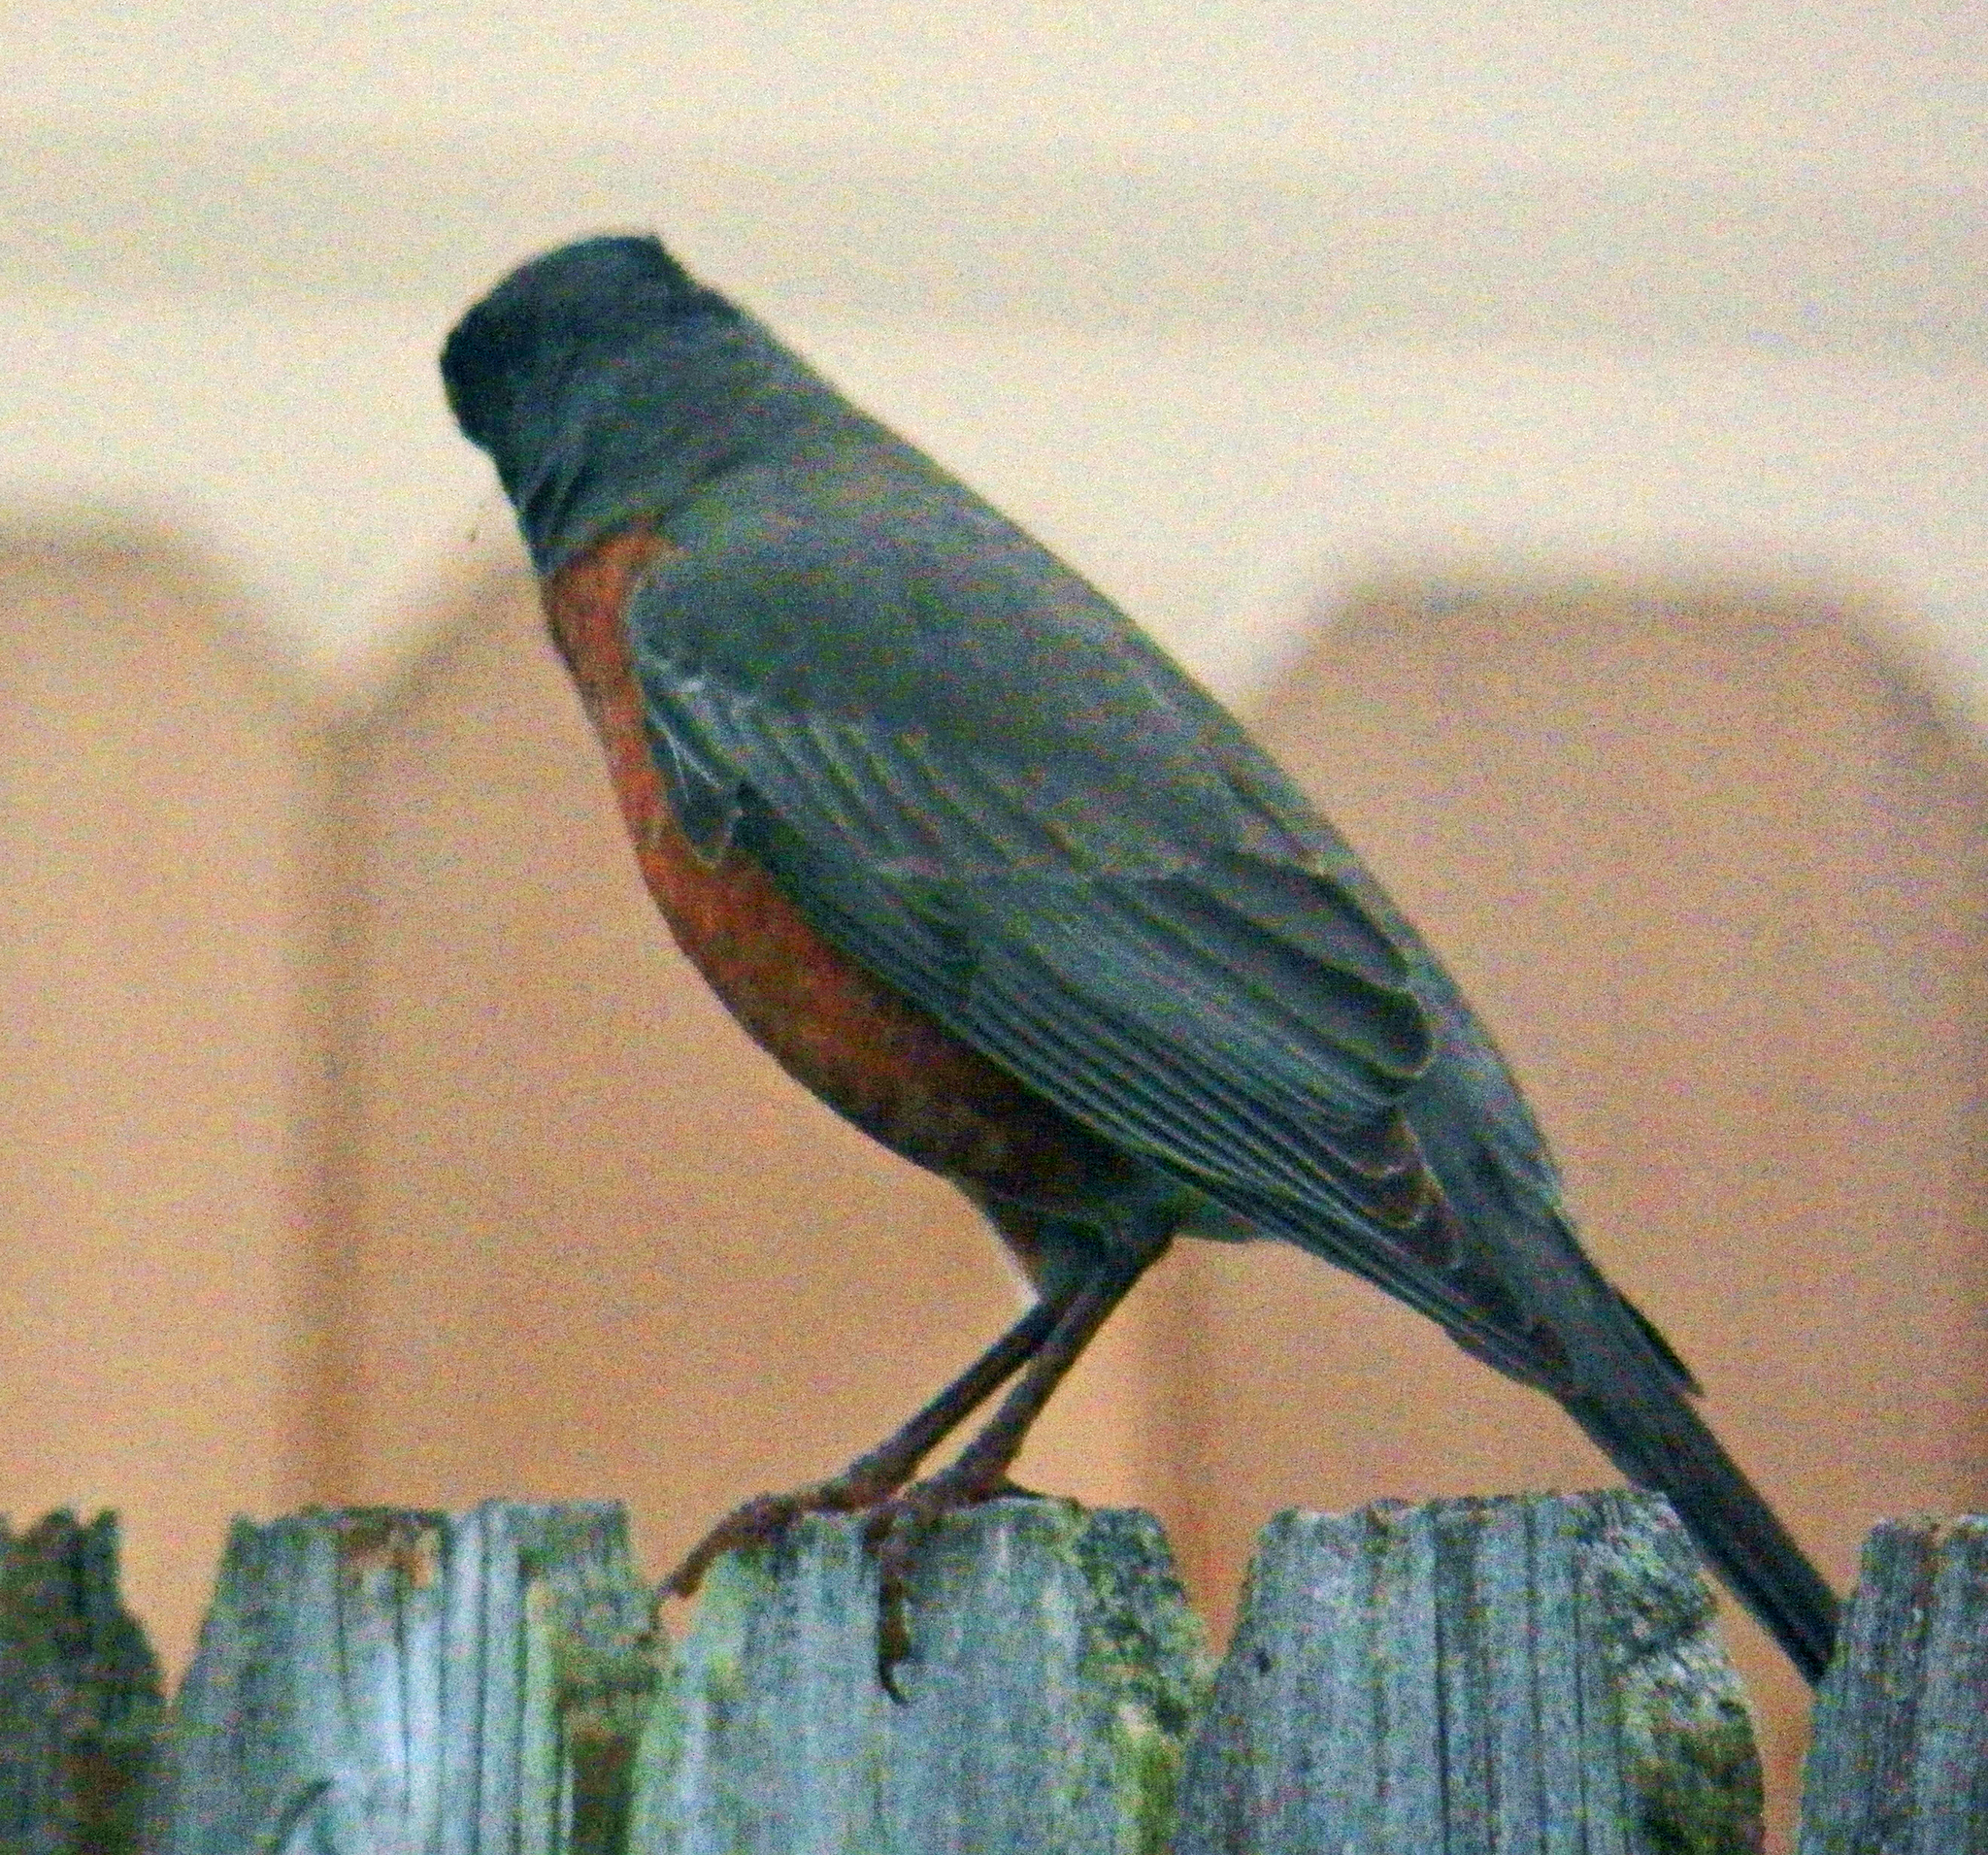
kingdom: Animalia
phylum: Chordata
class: Aves
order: Passeriformes
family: Turdidae
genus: Turdus
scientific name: Turdus migratorius
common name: American robin
